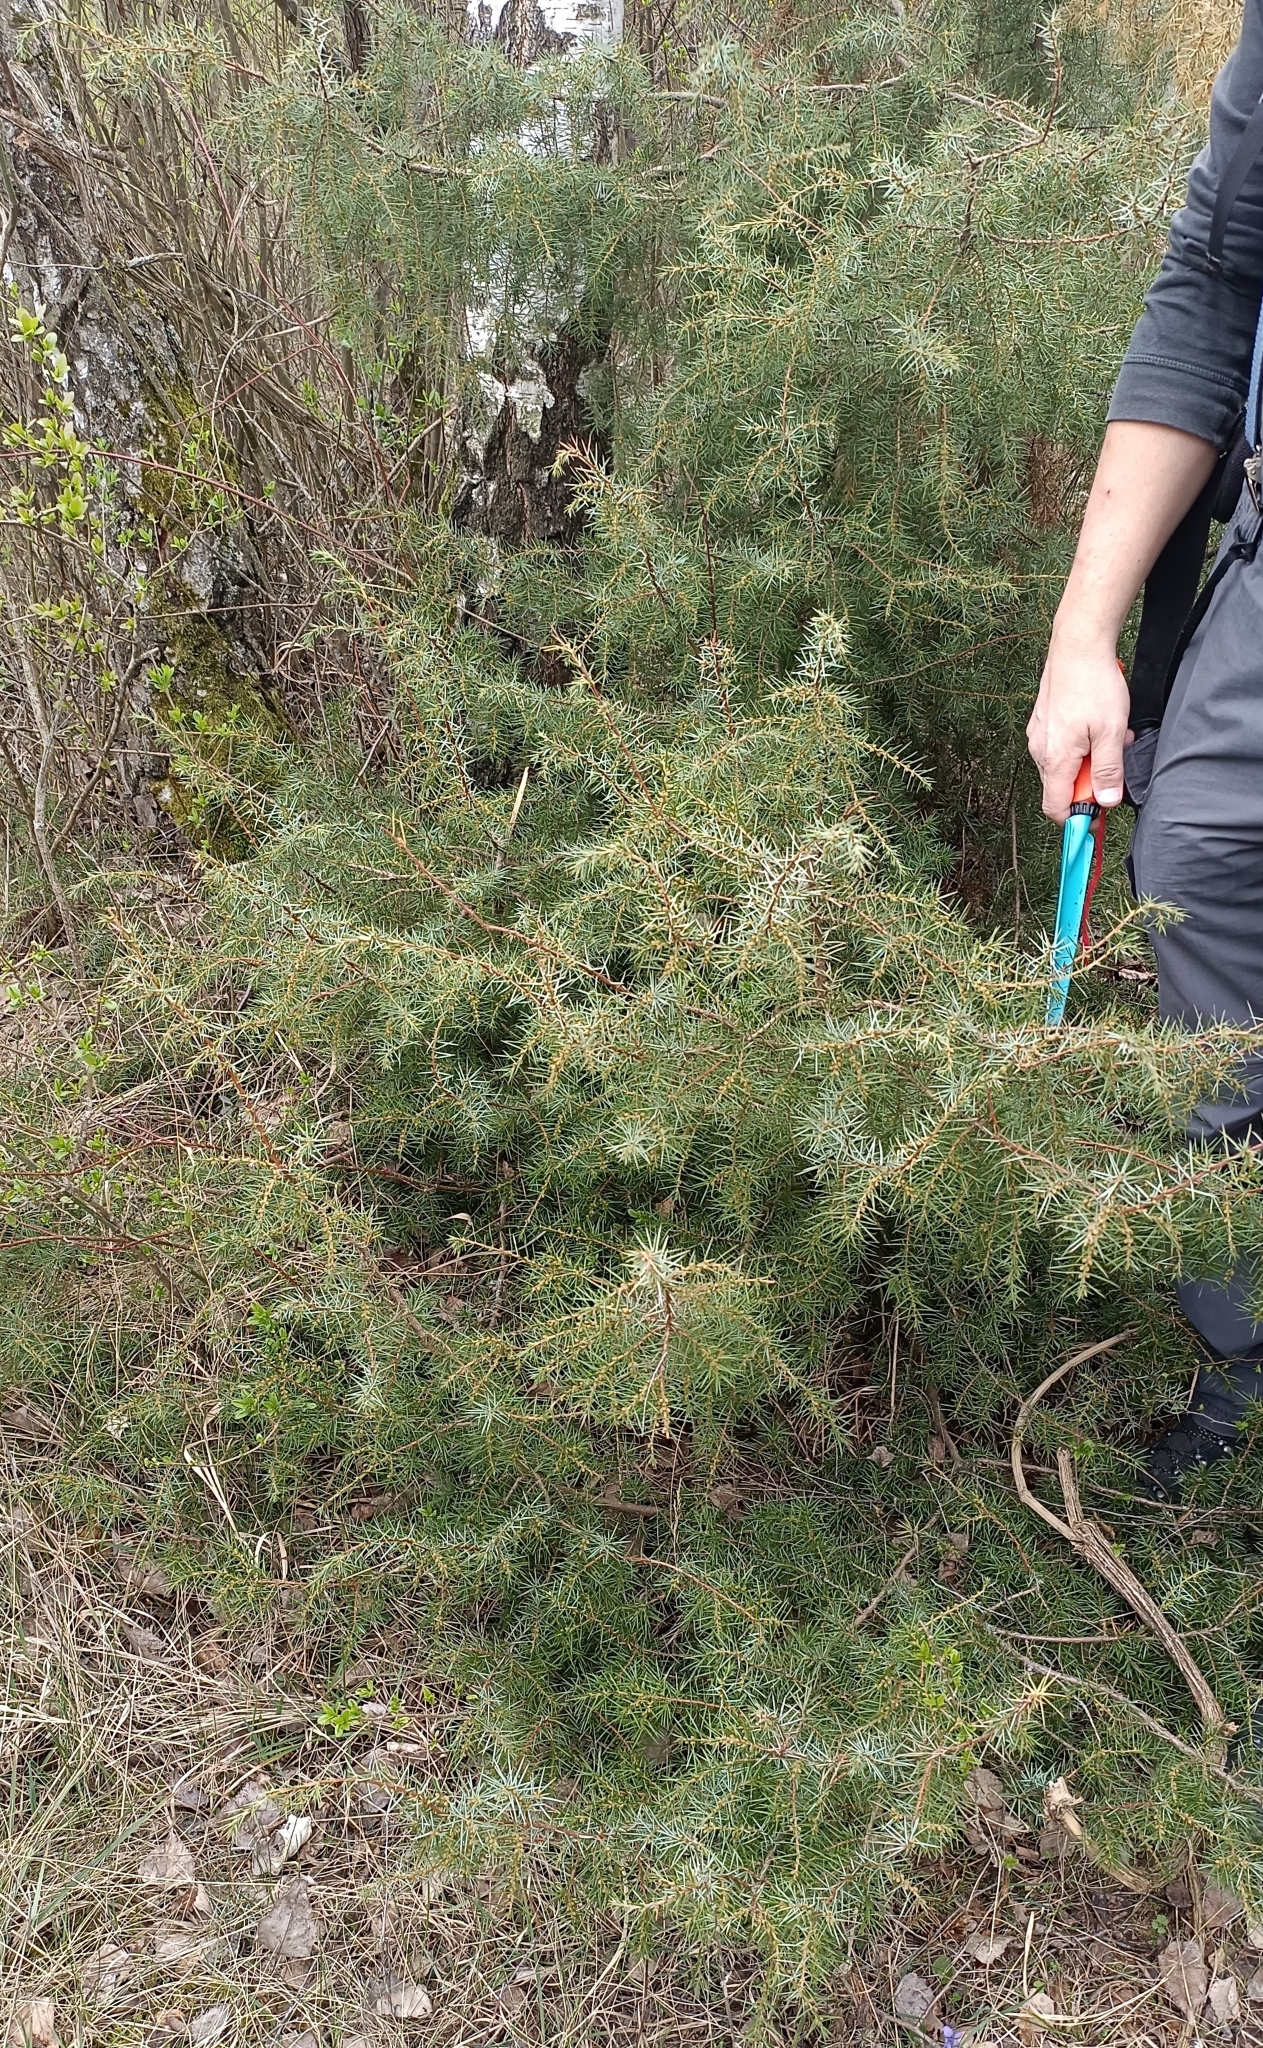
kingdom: Plantae
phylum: Tracheophyta
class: Pinopsida
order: Pinales
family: Cupressaceae
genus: Juniperus
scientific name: Juniperus communis
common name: Common juniper
